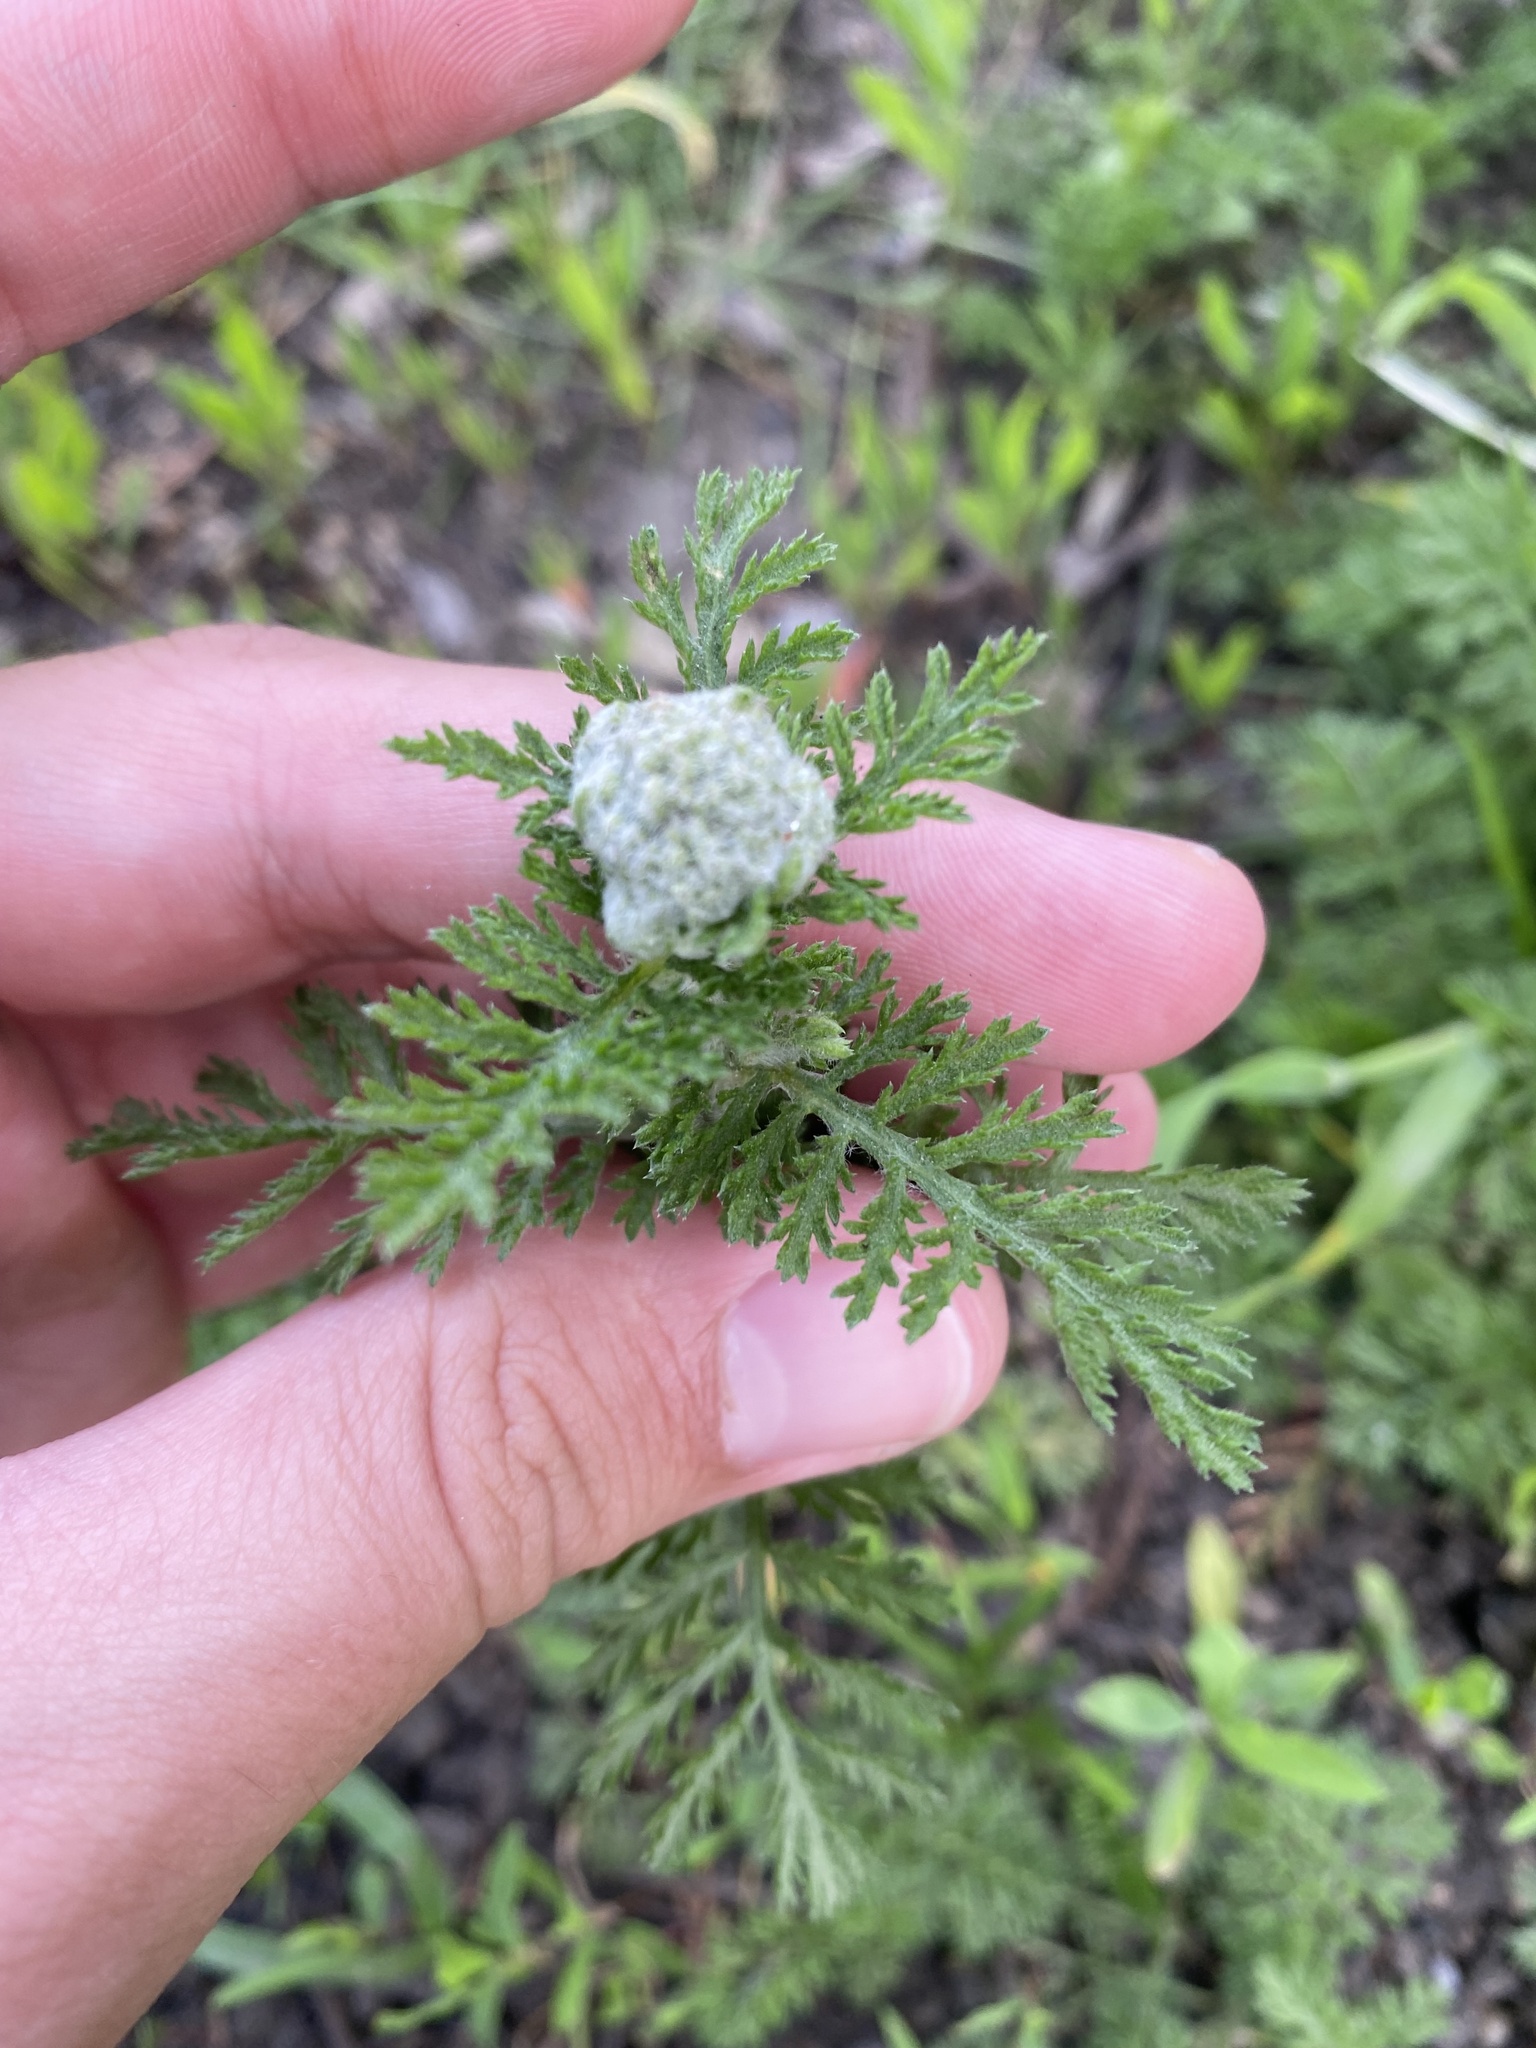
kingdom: Plantae
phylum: Tracheophyta
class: Magnoliopsida
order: Asterales
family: Asteraceae
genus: Achillea
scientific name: Achillea nobilis
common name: Noble yarrow
